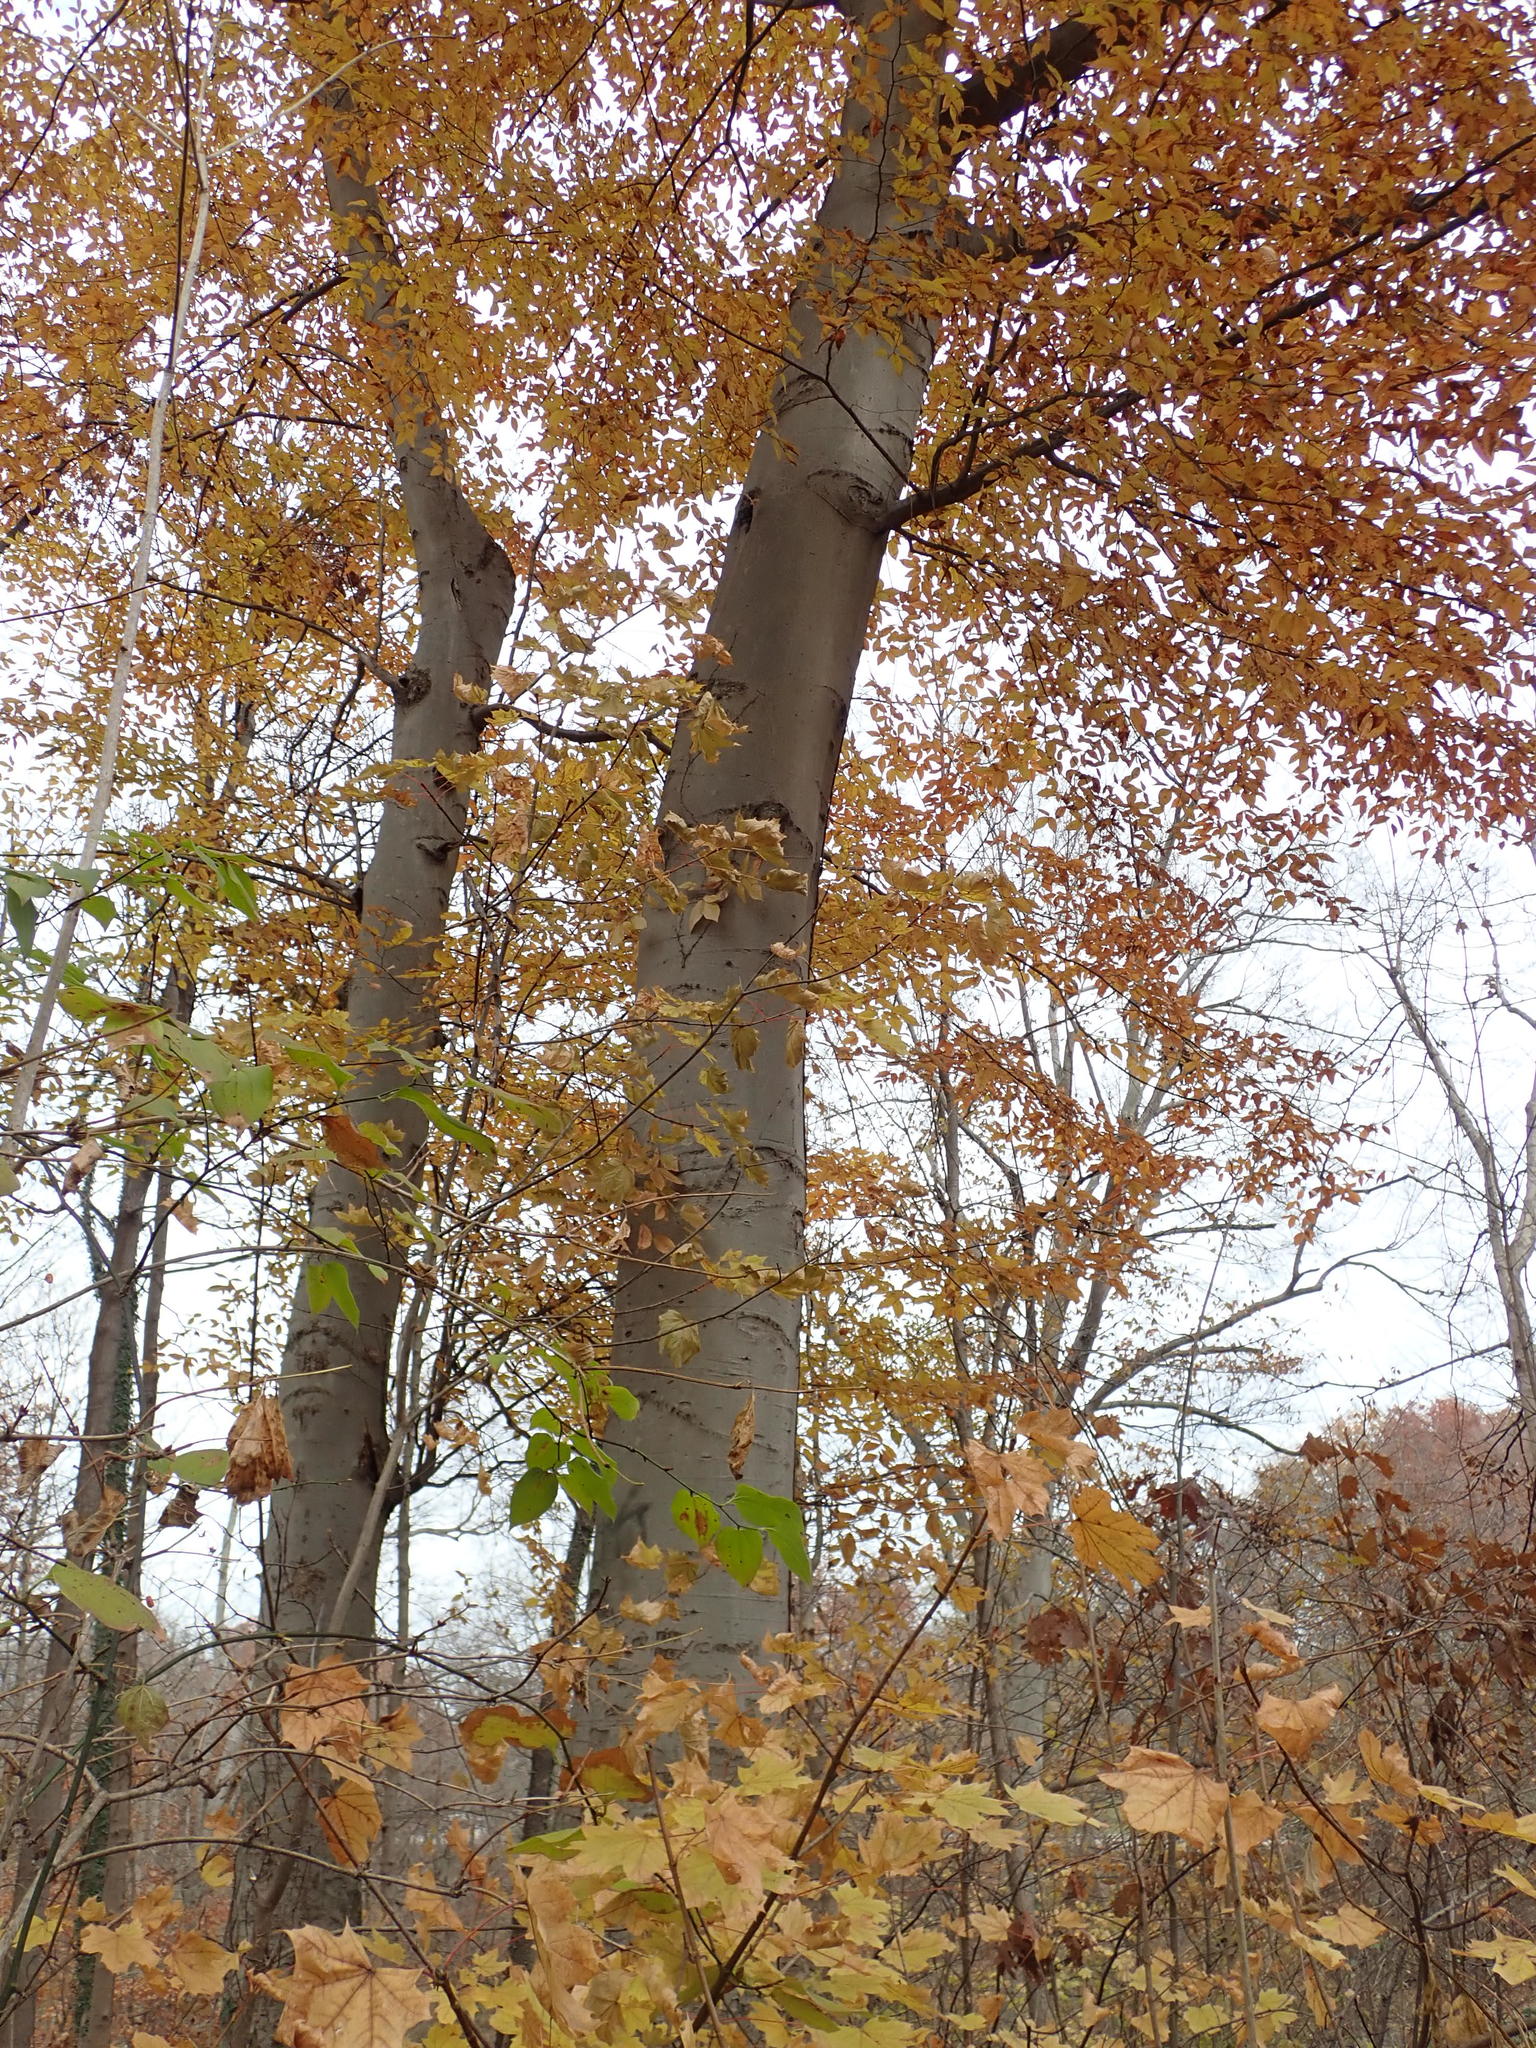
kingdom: Plantae
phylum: Tracheophyta
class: Magnoliopsida
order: Fagales
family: Fagaceae
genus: Fagus
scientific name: Fagus grandifolia
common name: American beech
